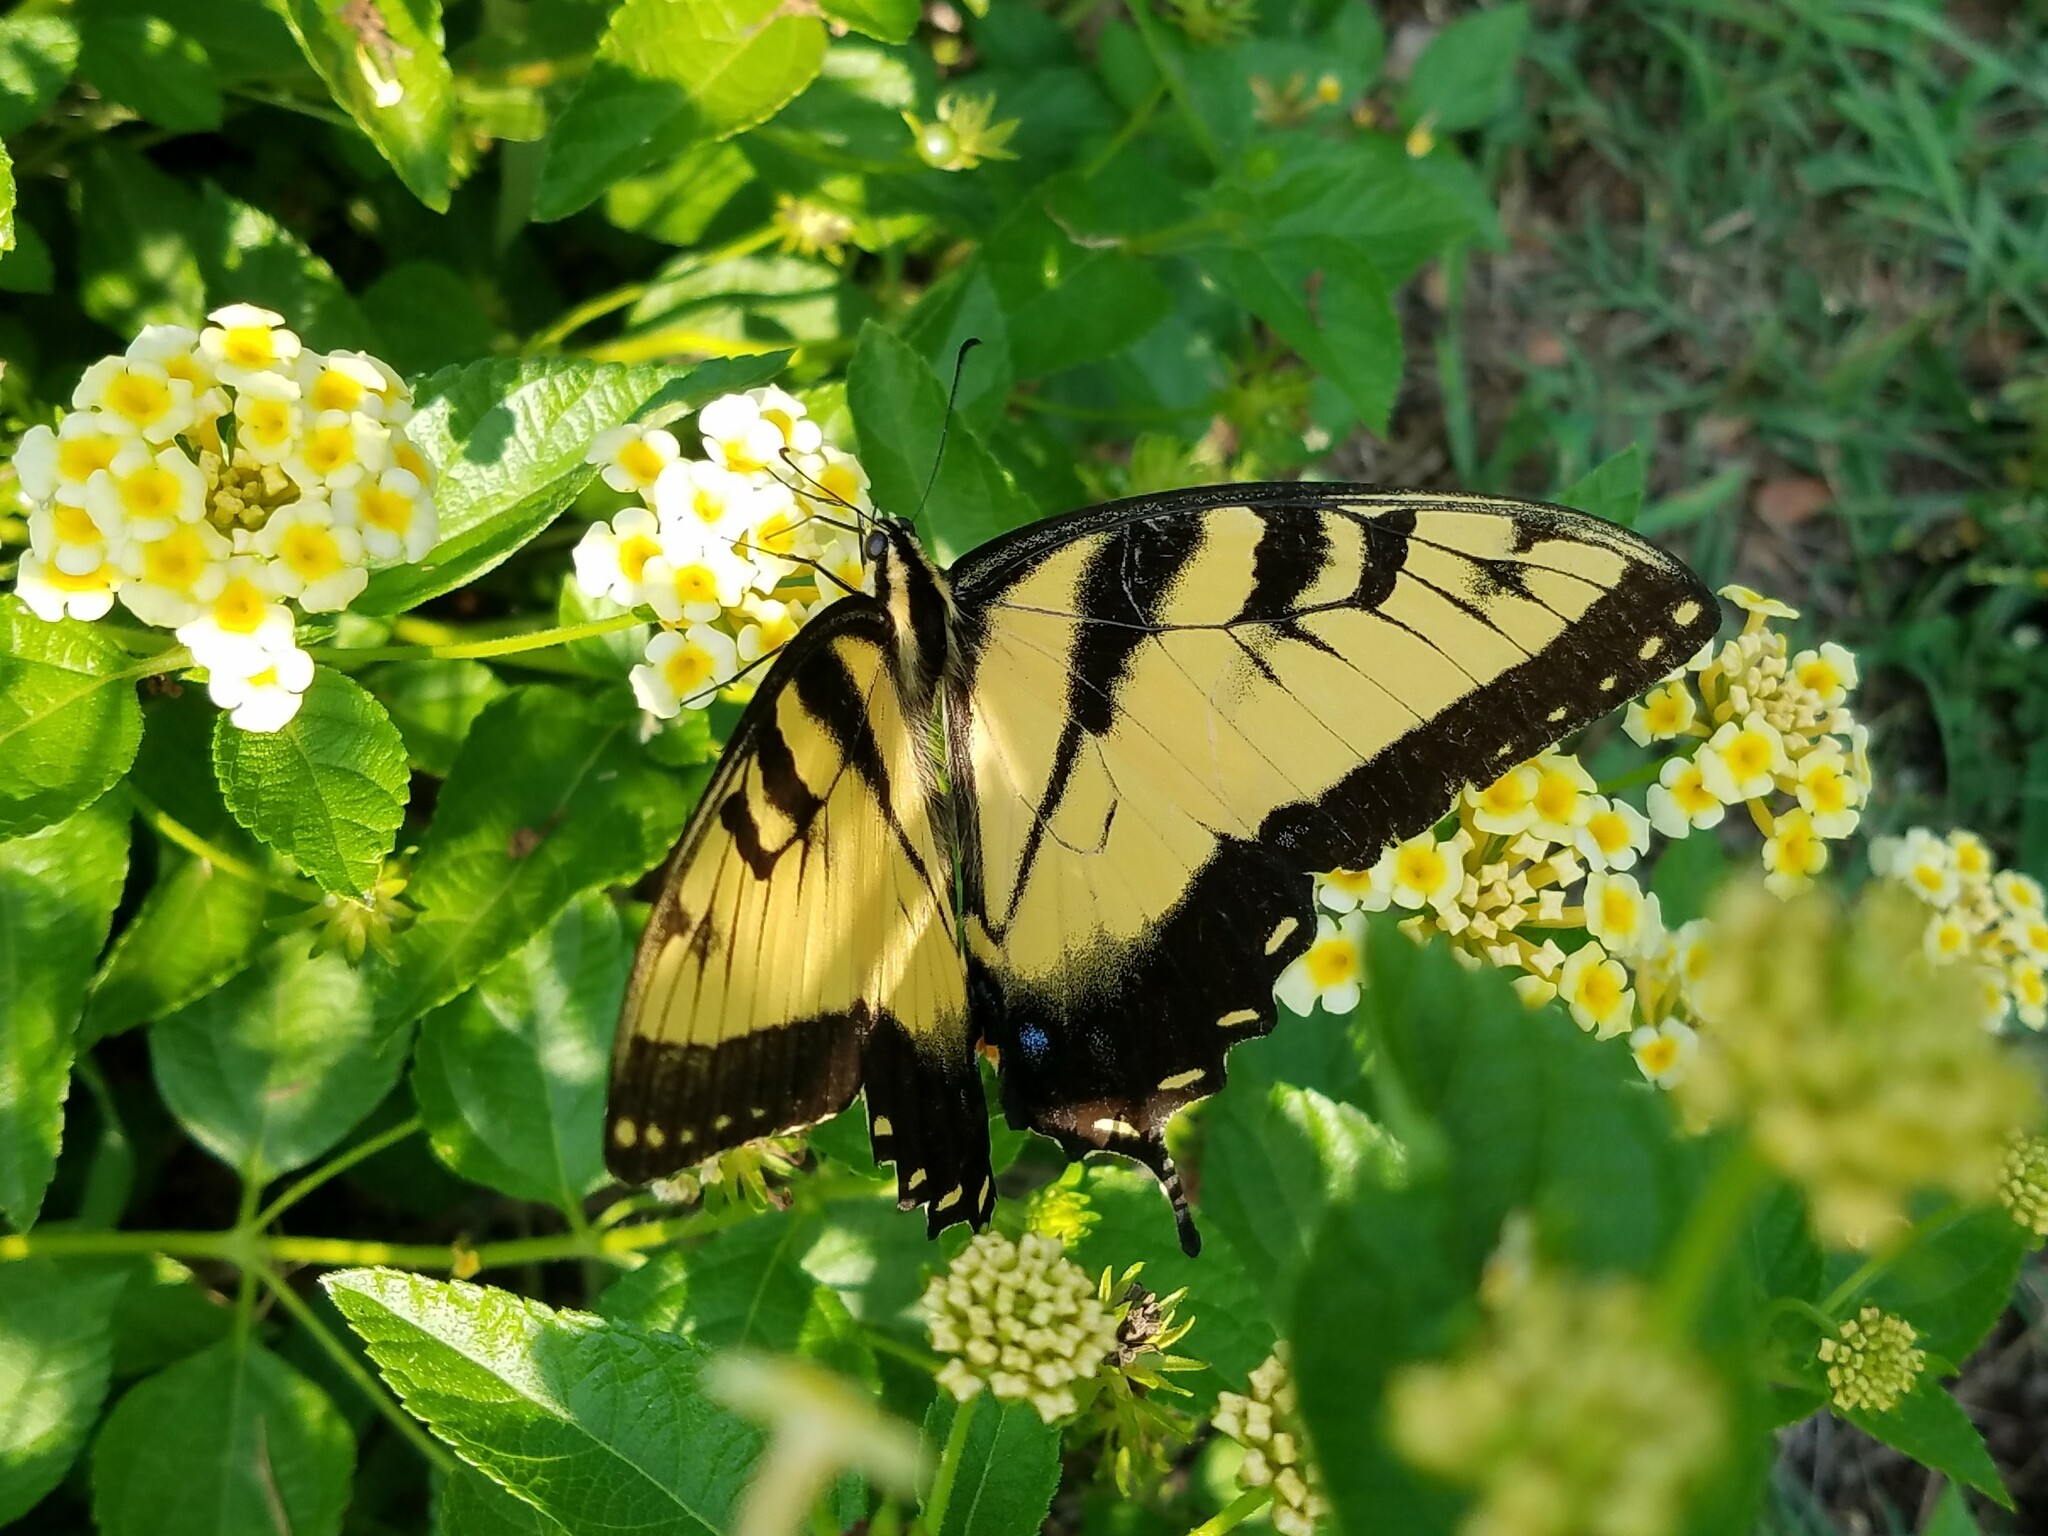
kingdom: Animalia
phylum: Arthropoda
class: Insecta
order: Lepidoptera
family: Papilionidae
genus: Papilio
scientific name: Papilio glaucus
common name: Tiger swallowtail
